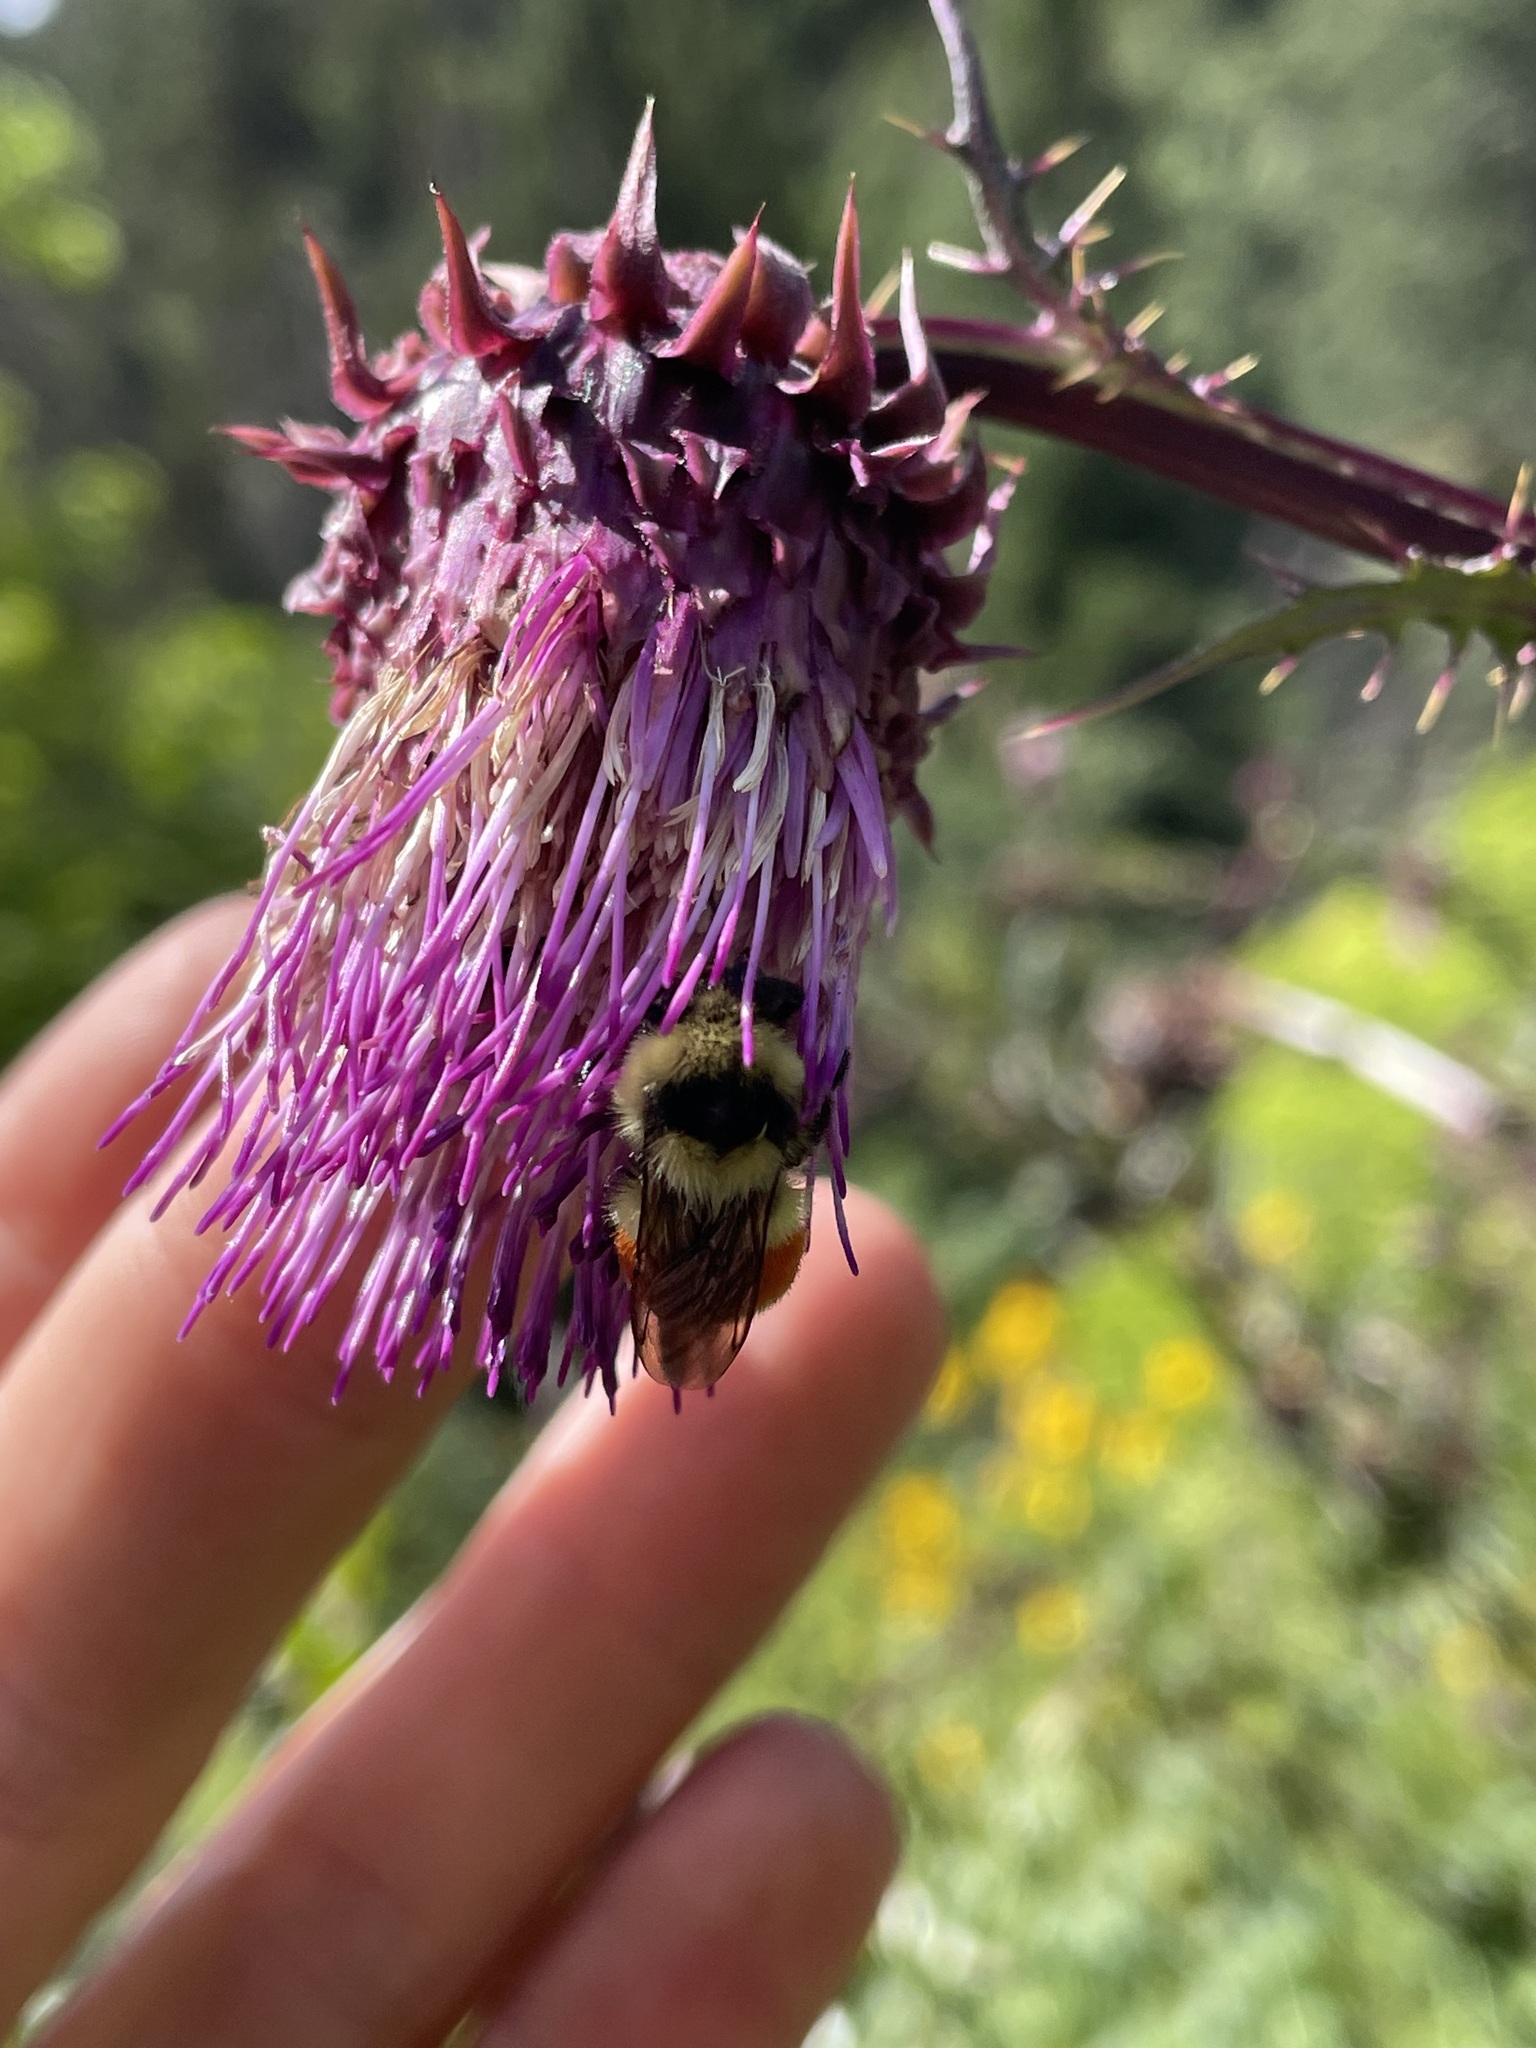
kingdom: Animalia
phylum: Arthropoda
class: Insecta
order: Hymenoptera
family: Apidae
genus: Bombus
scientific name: Bombus huntii
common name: Hunt bumble bee
